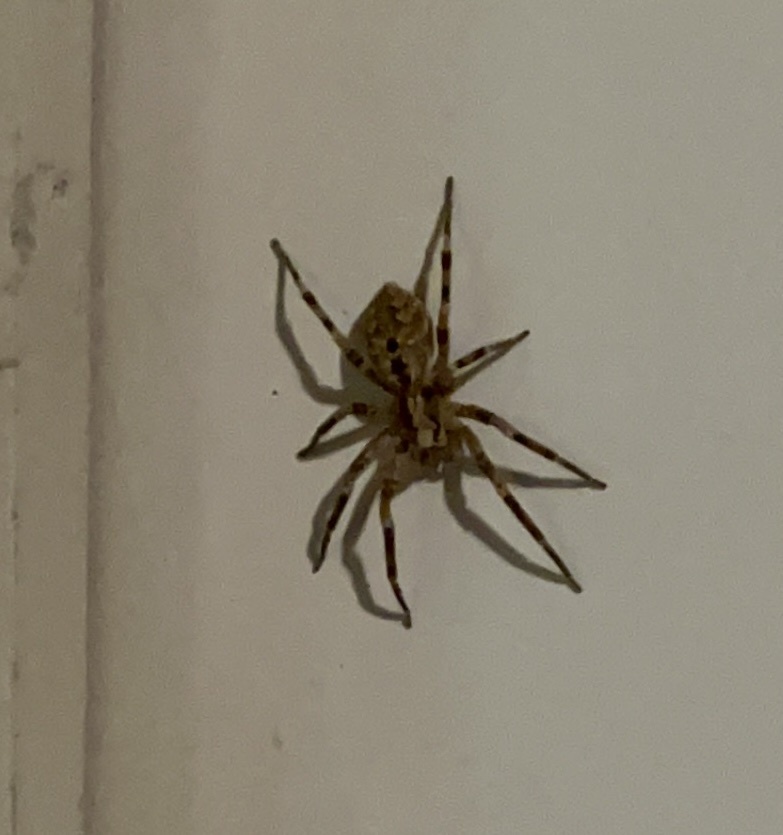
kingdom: Animalia
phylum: Arthropoda
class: Arachnida
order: Araneae
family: Zoropsidae
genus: Zoropsis
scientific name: Zoropsis spinimana
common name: Zoropsid spider
